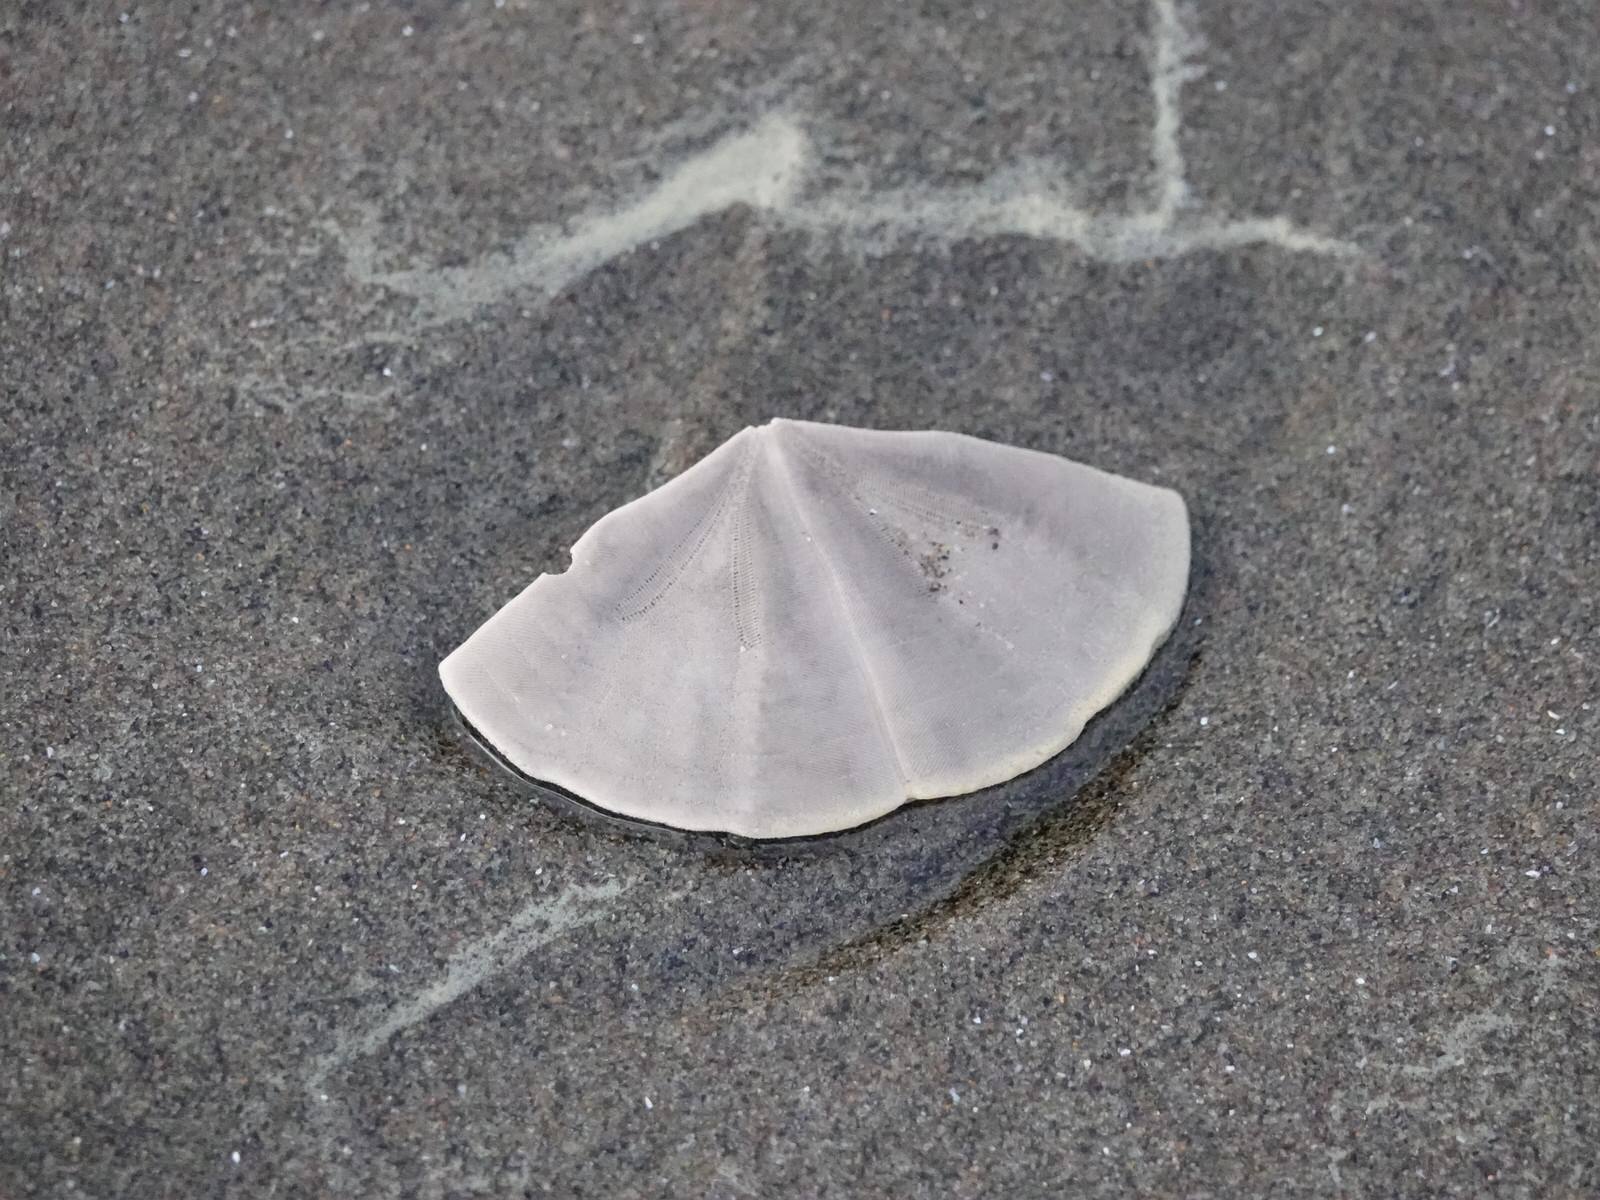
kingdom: Animalia
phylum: Echinodermata
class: Echinoidea
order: Clypeasteroida
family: Clypeasteridae
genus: Fellaster
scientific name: Fellaster zelandiae
